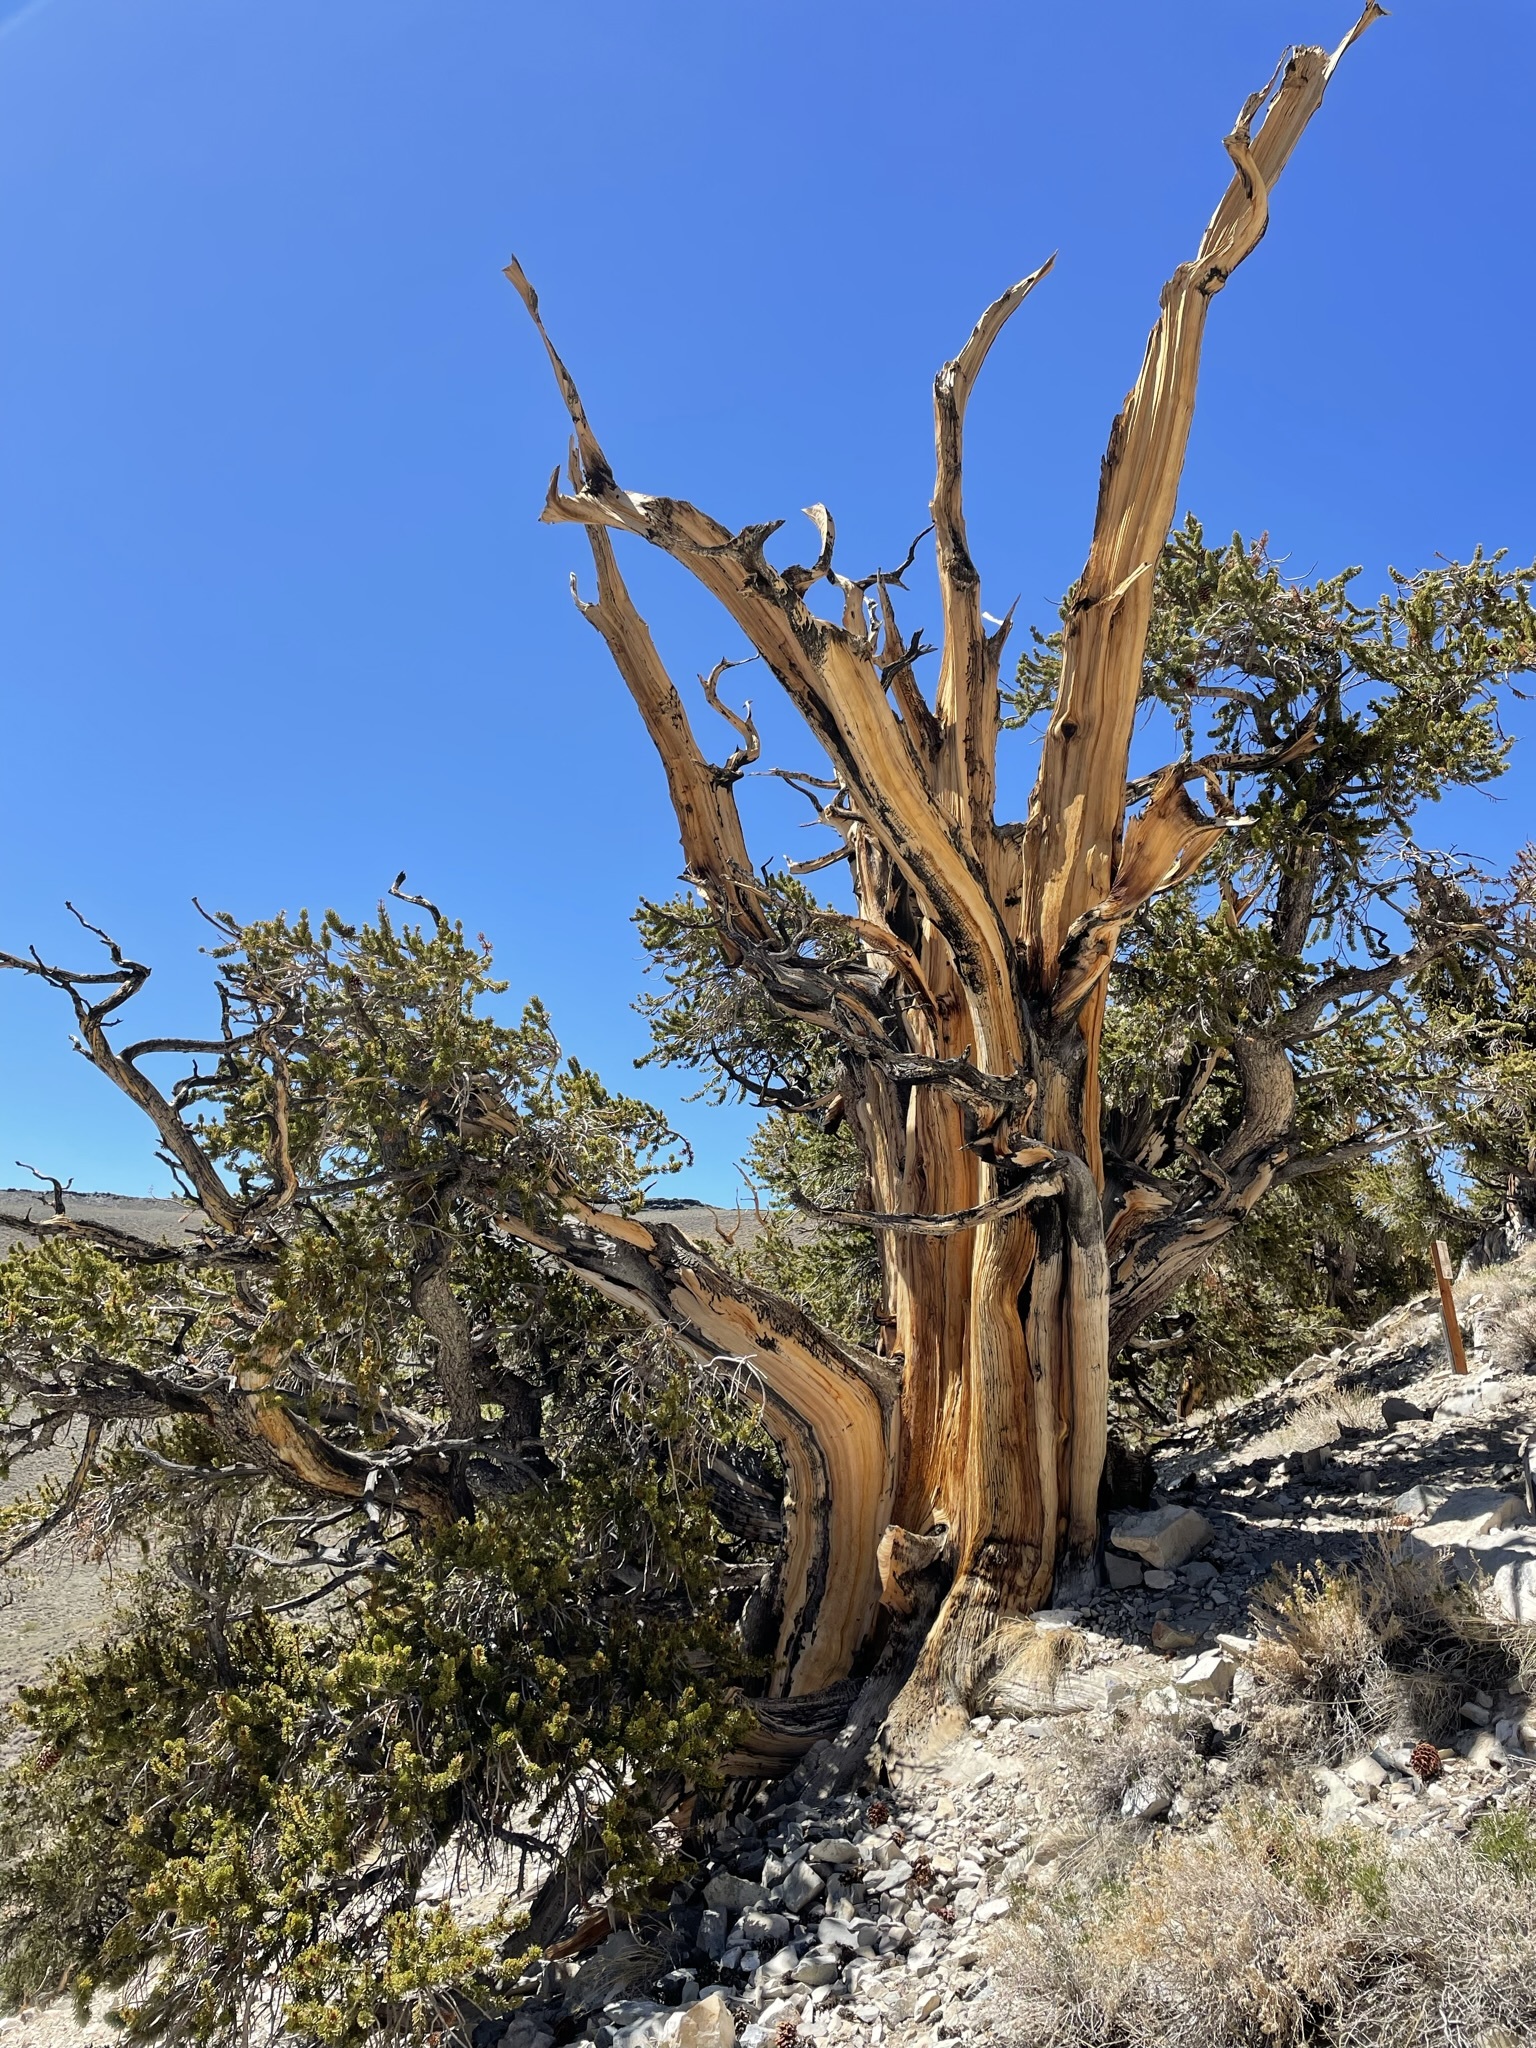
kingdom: Plantae
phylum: Tracheophyta
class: Pinopsida
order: Pinales
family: Pinaceae
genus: Pinus
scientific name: Pinus longaeva
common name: Intermountain bristlecone pine
